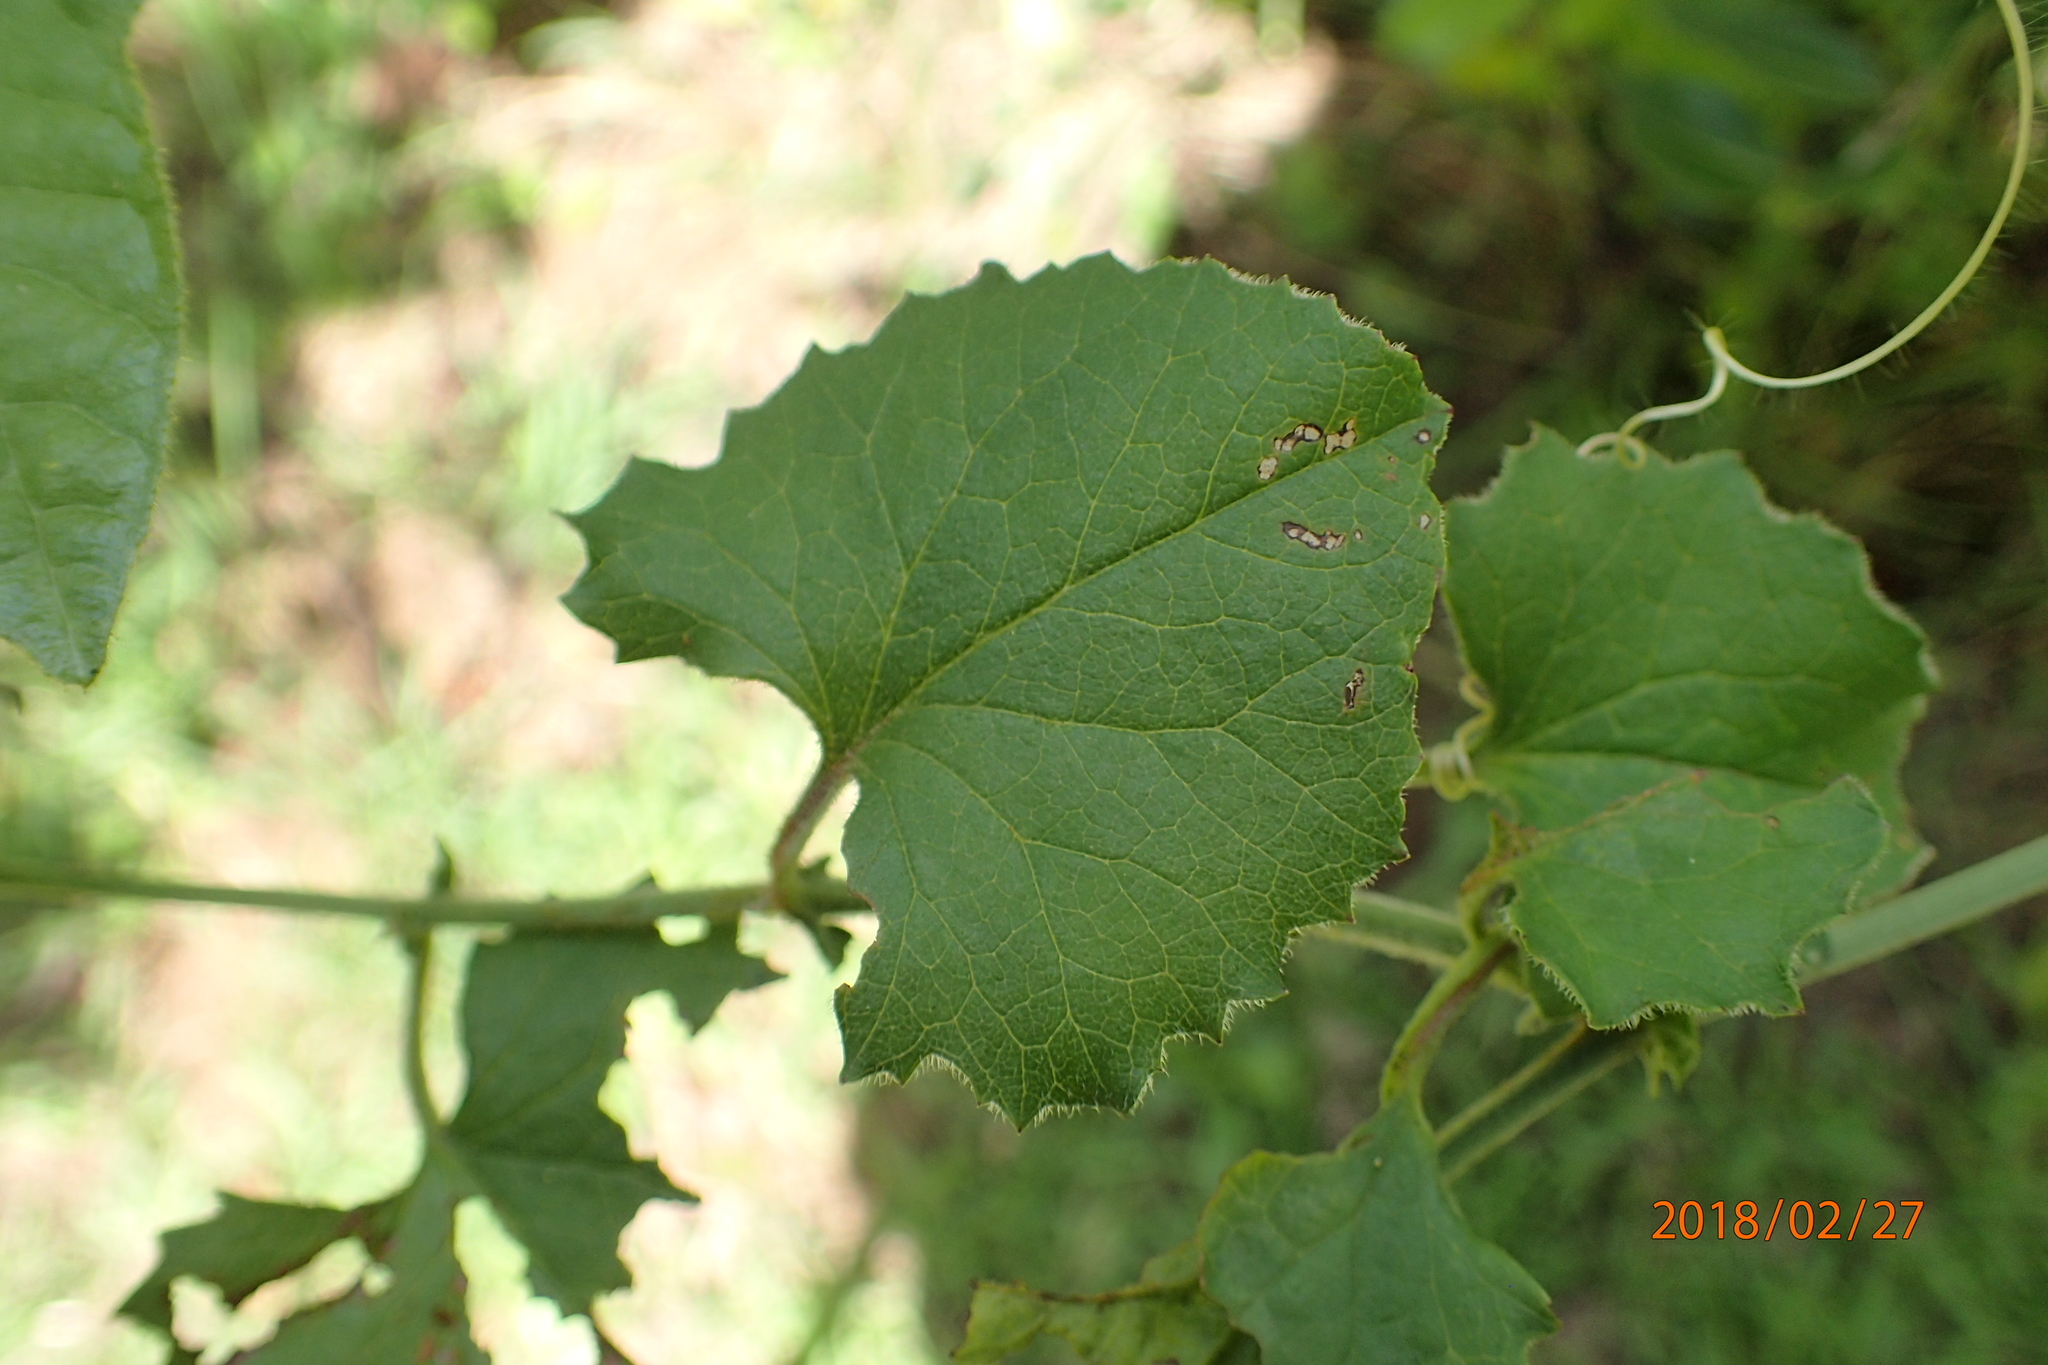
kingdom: Plantae
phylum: Tracheophyta
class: Magnoliopsida
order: Malpighiales
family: Passifloraceae
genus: Passiflora
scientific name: Passiflora foetida
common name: Fetid passionflower
